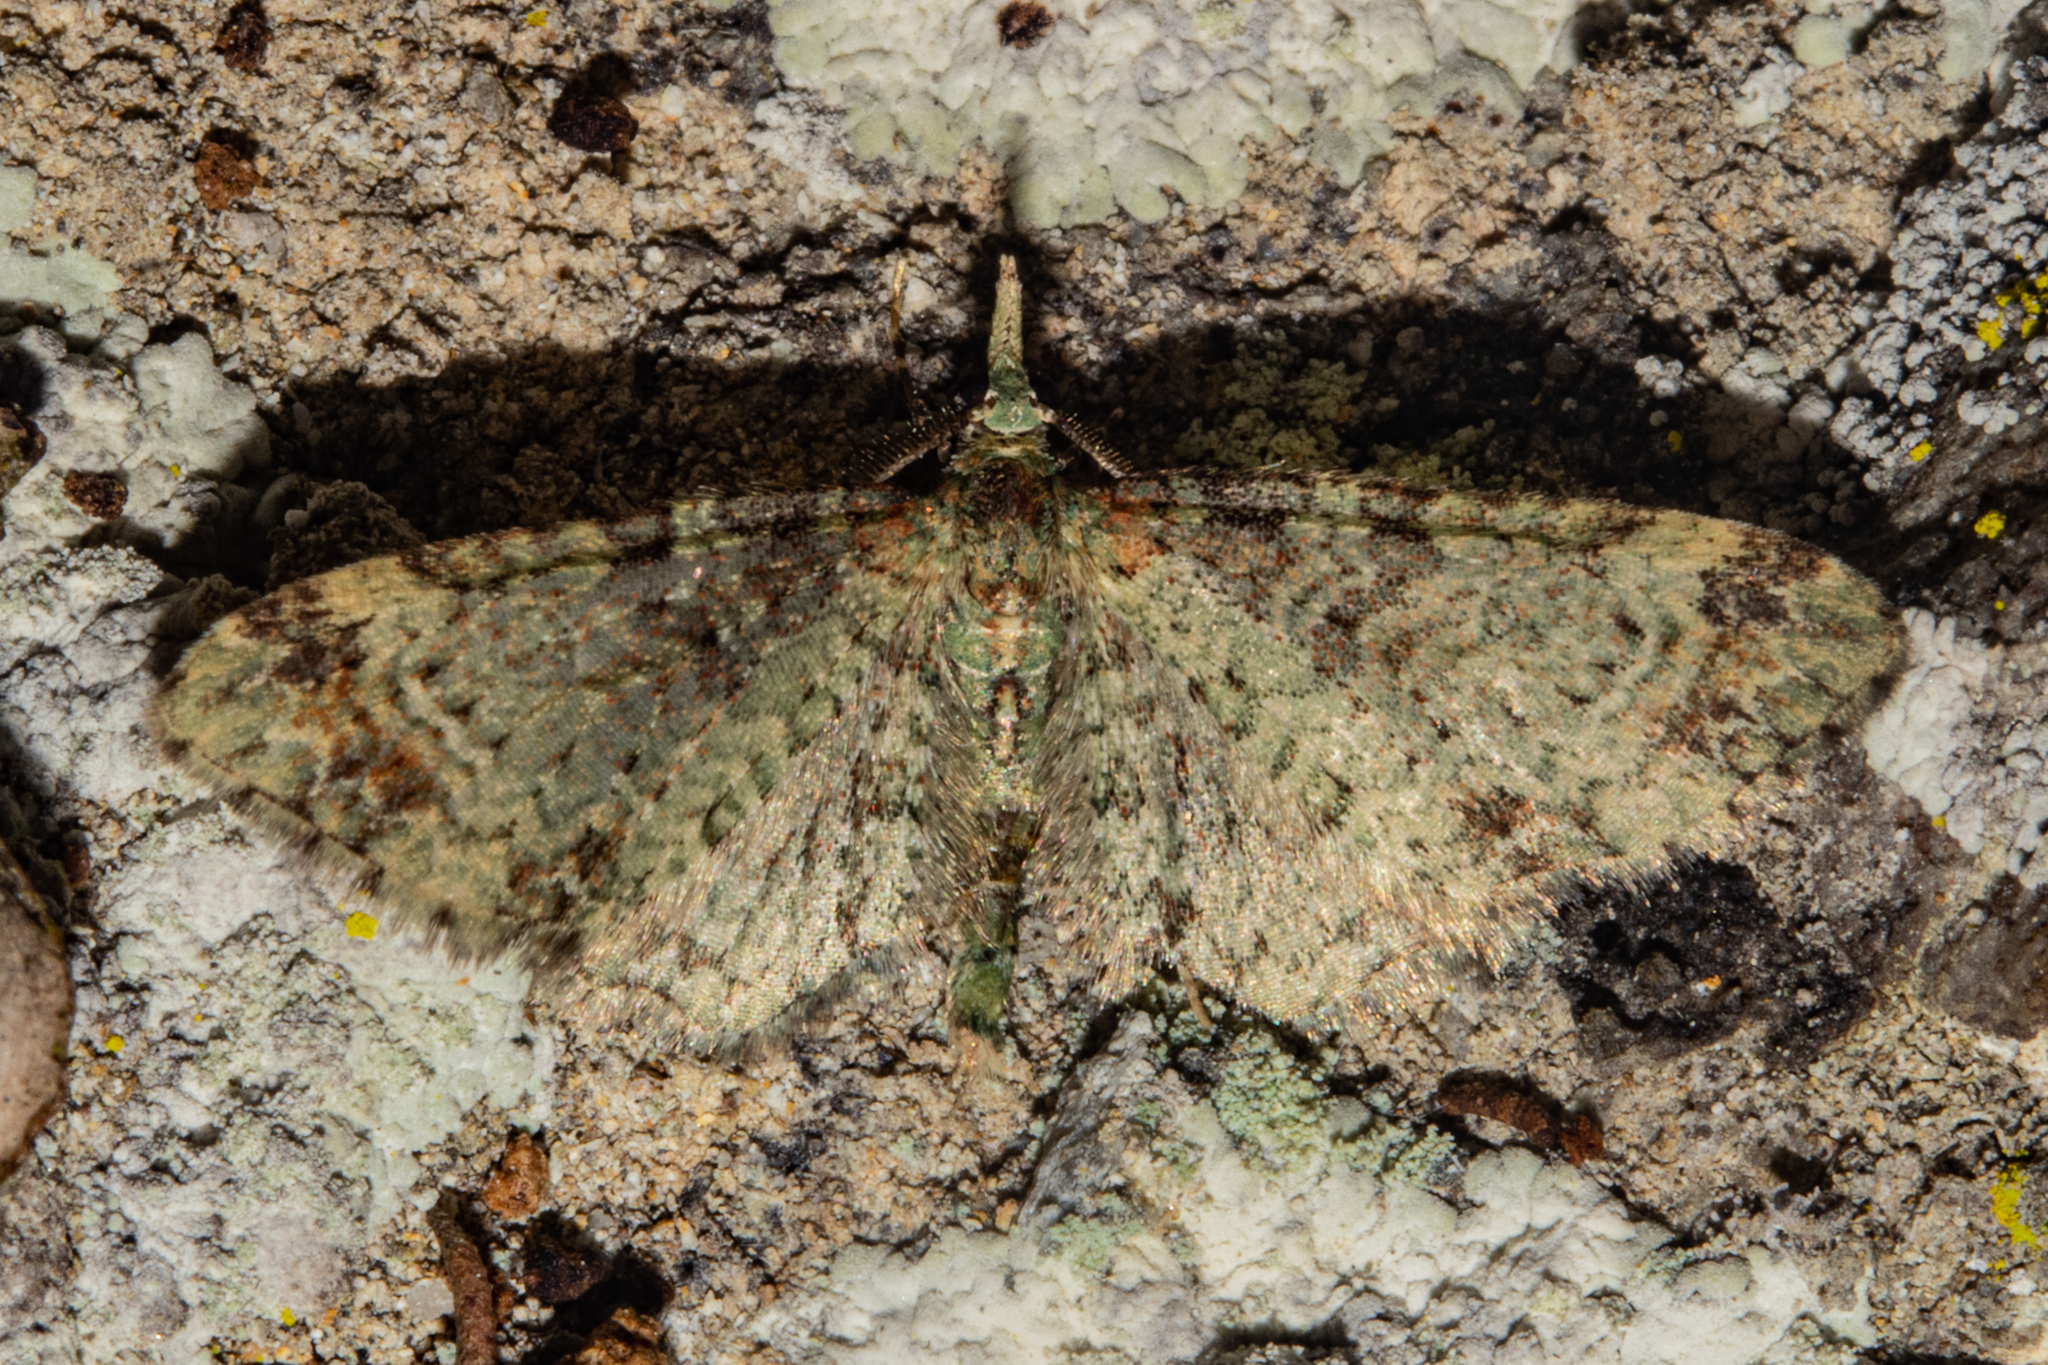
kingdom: Animalia
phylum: Arthropoda
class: Insecta
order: Lepidoptera
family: Geometridae
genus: Pasiphila
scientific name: Pasiphila plinthina
